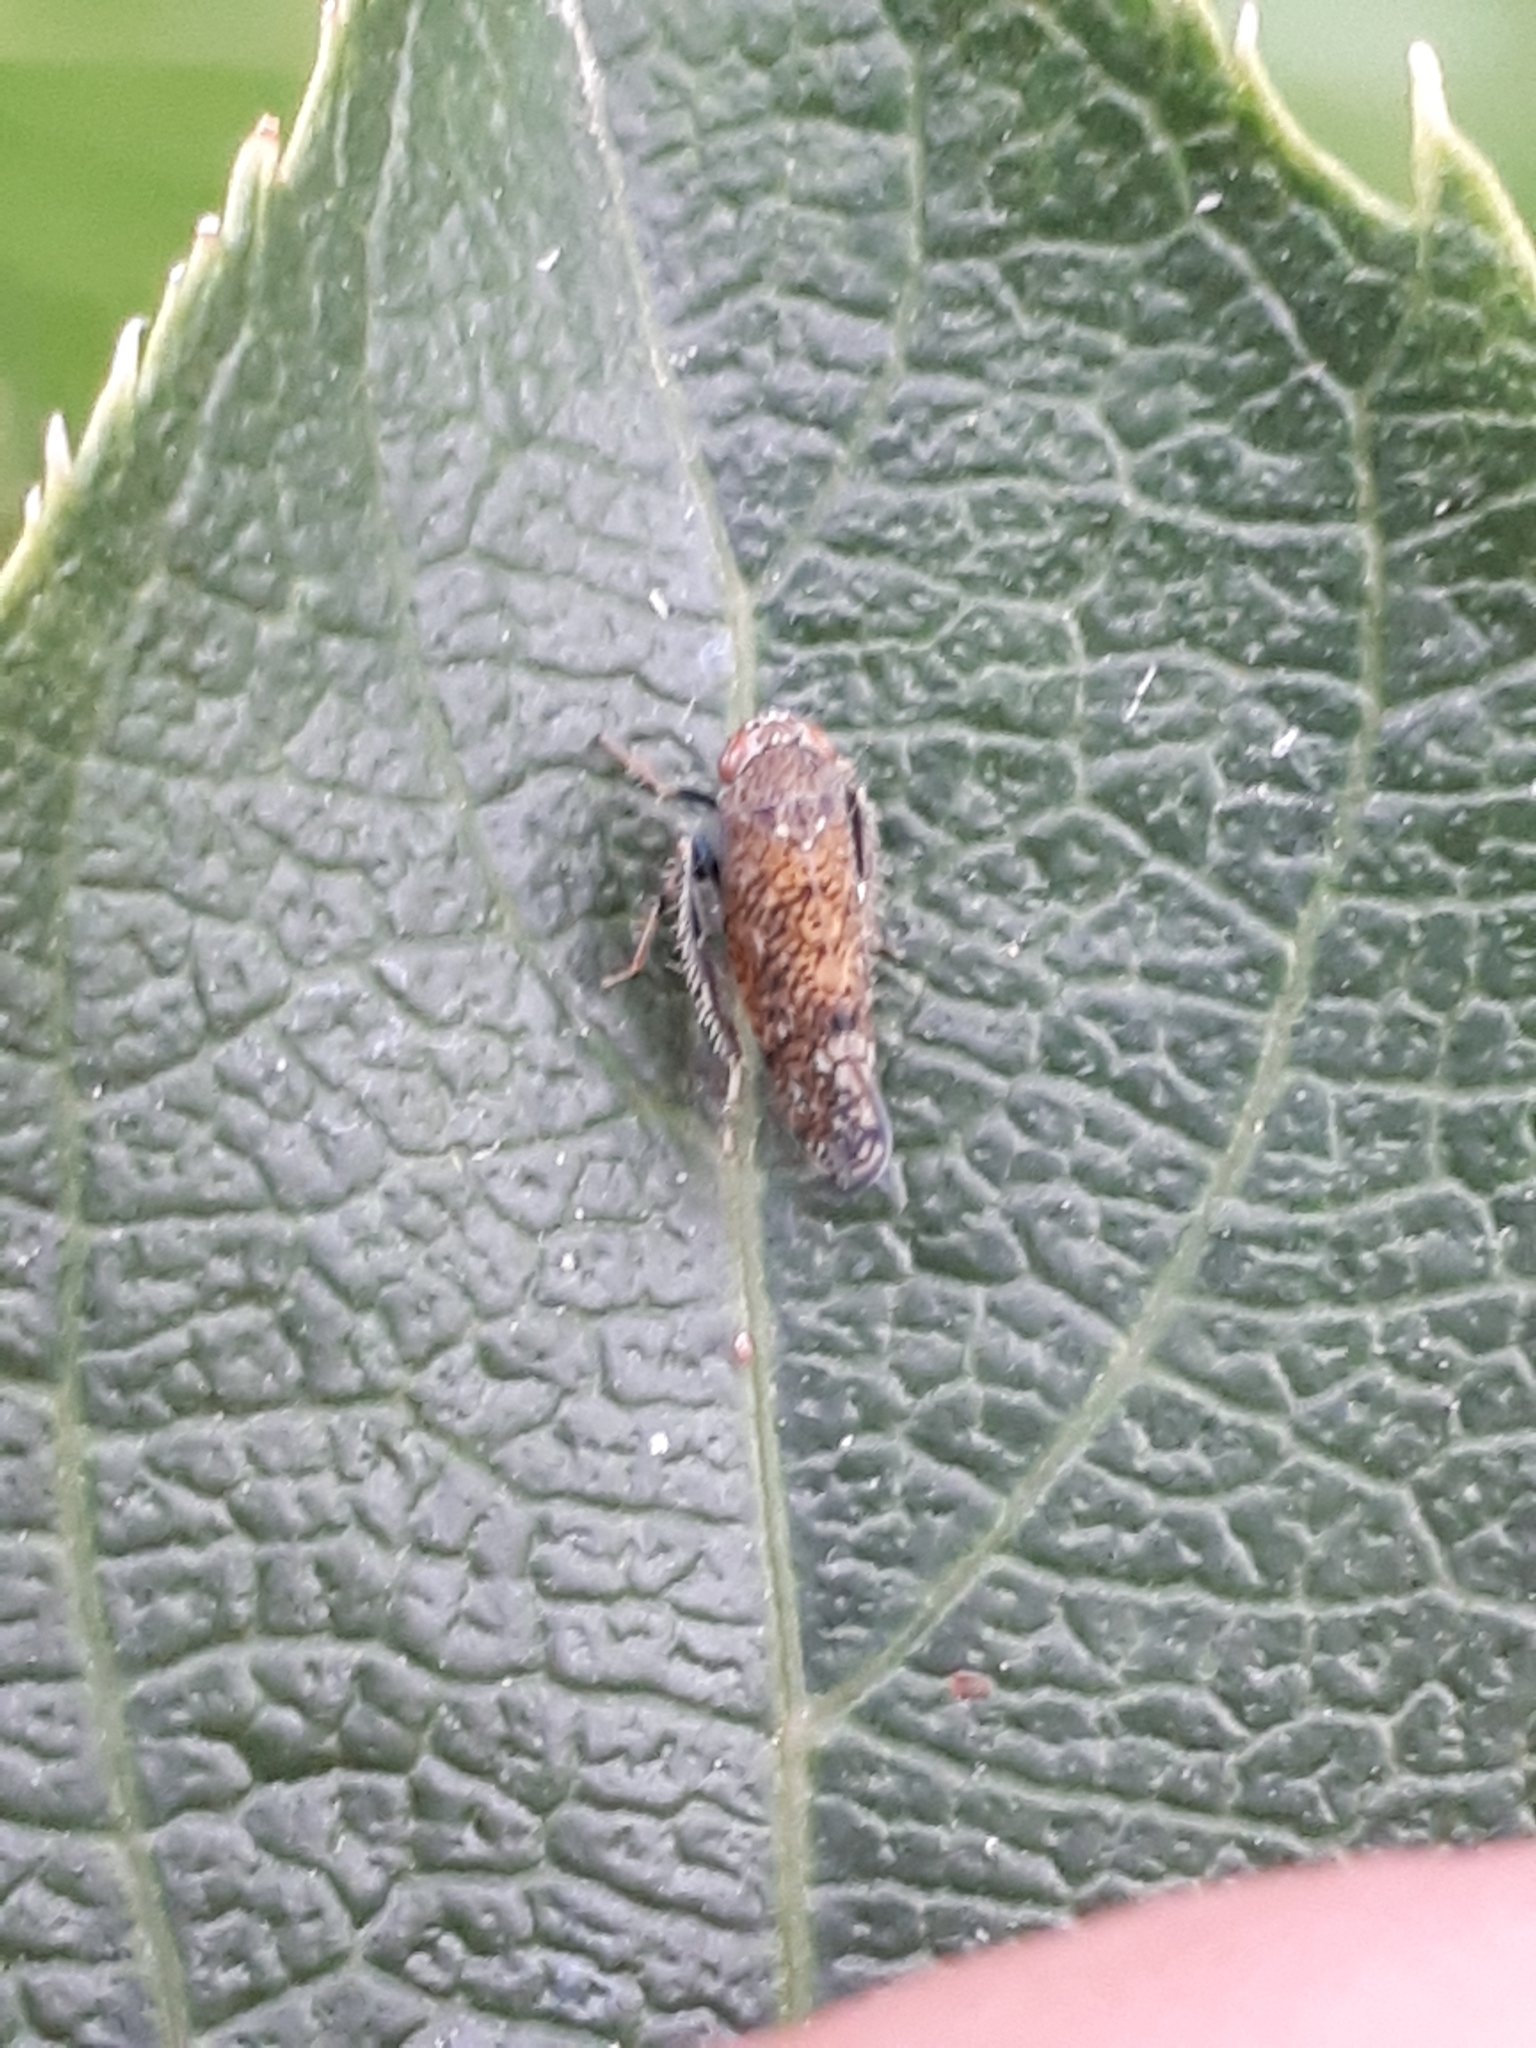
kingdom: Animalia
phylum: Arthropoda
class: Insecta
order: Hemiptera
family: Cicadellidae
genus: Orientus
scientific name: Orientus ishidae
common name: Japanese leafhopper
